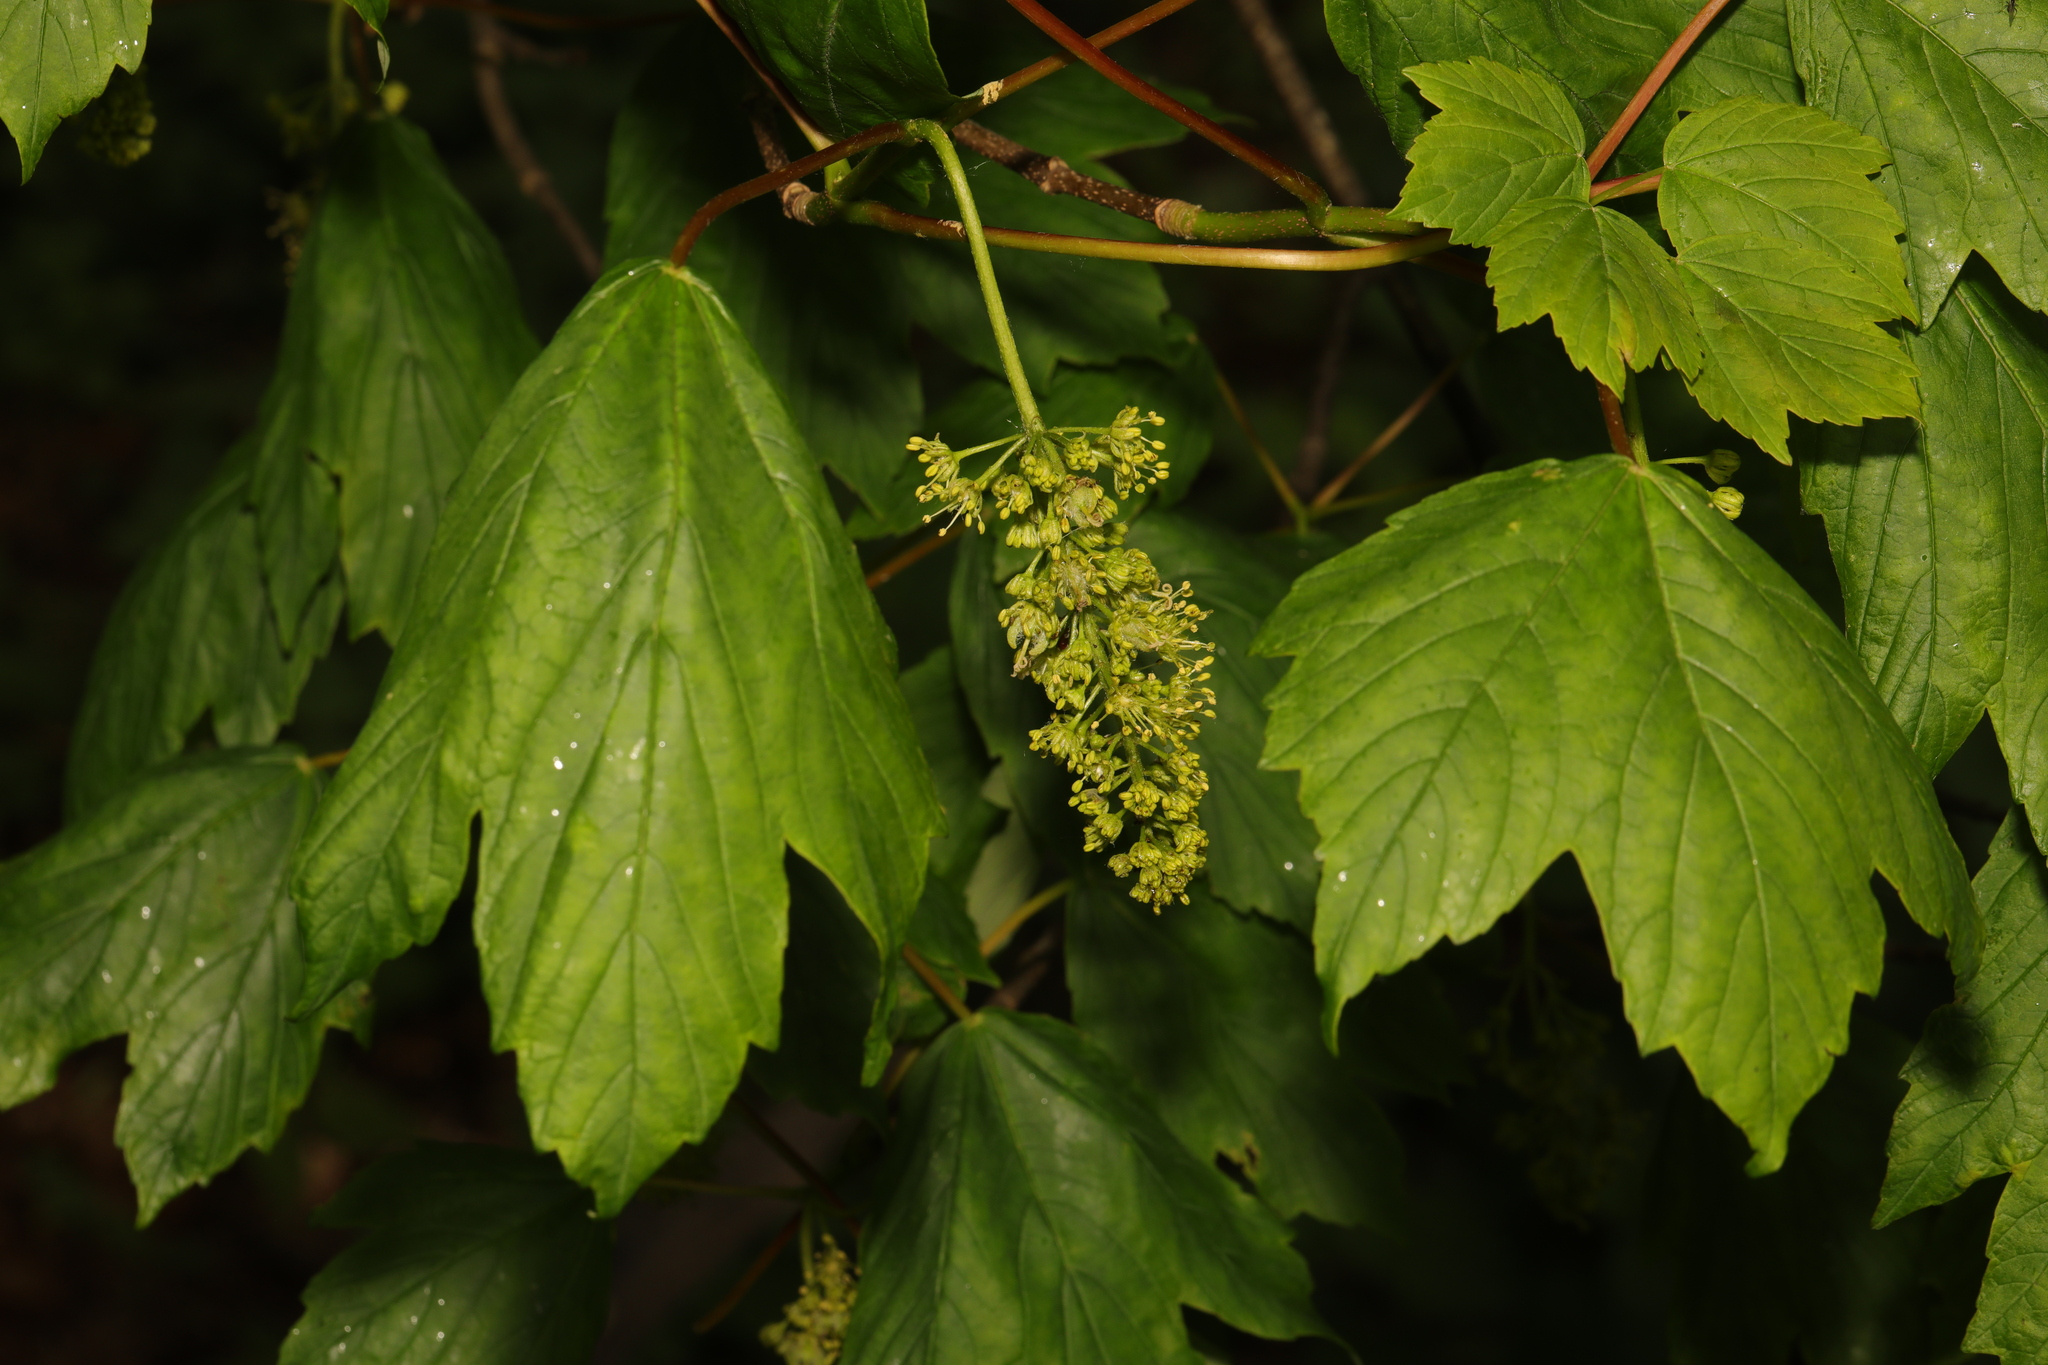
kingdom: Plantae
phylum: Tracheophyta
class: Magnoliopsida
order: Sapindales
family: Sapindaceae
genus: Acer
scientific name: Acer pseudoplatanus
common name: Sycamore
